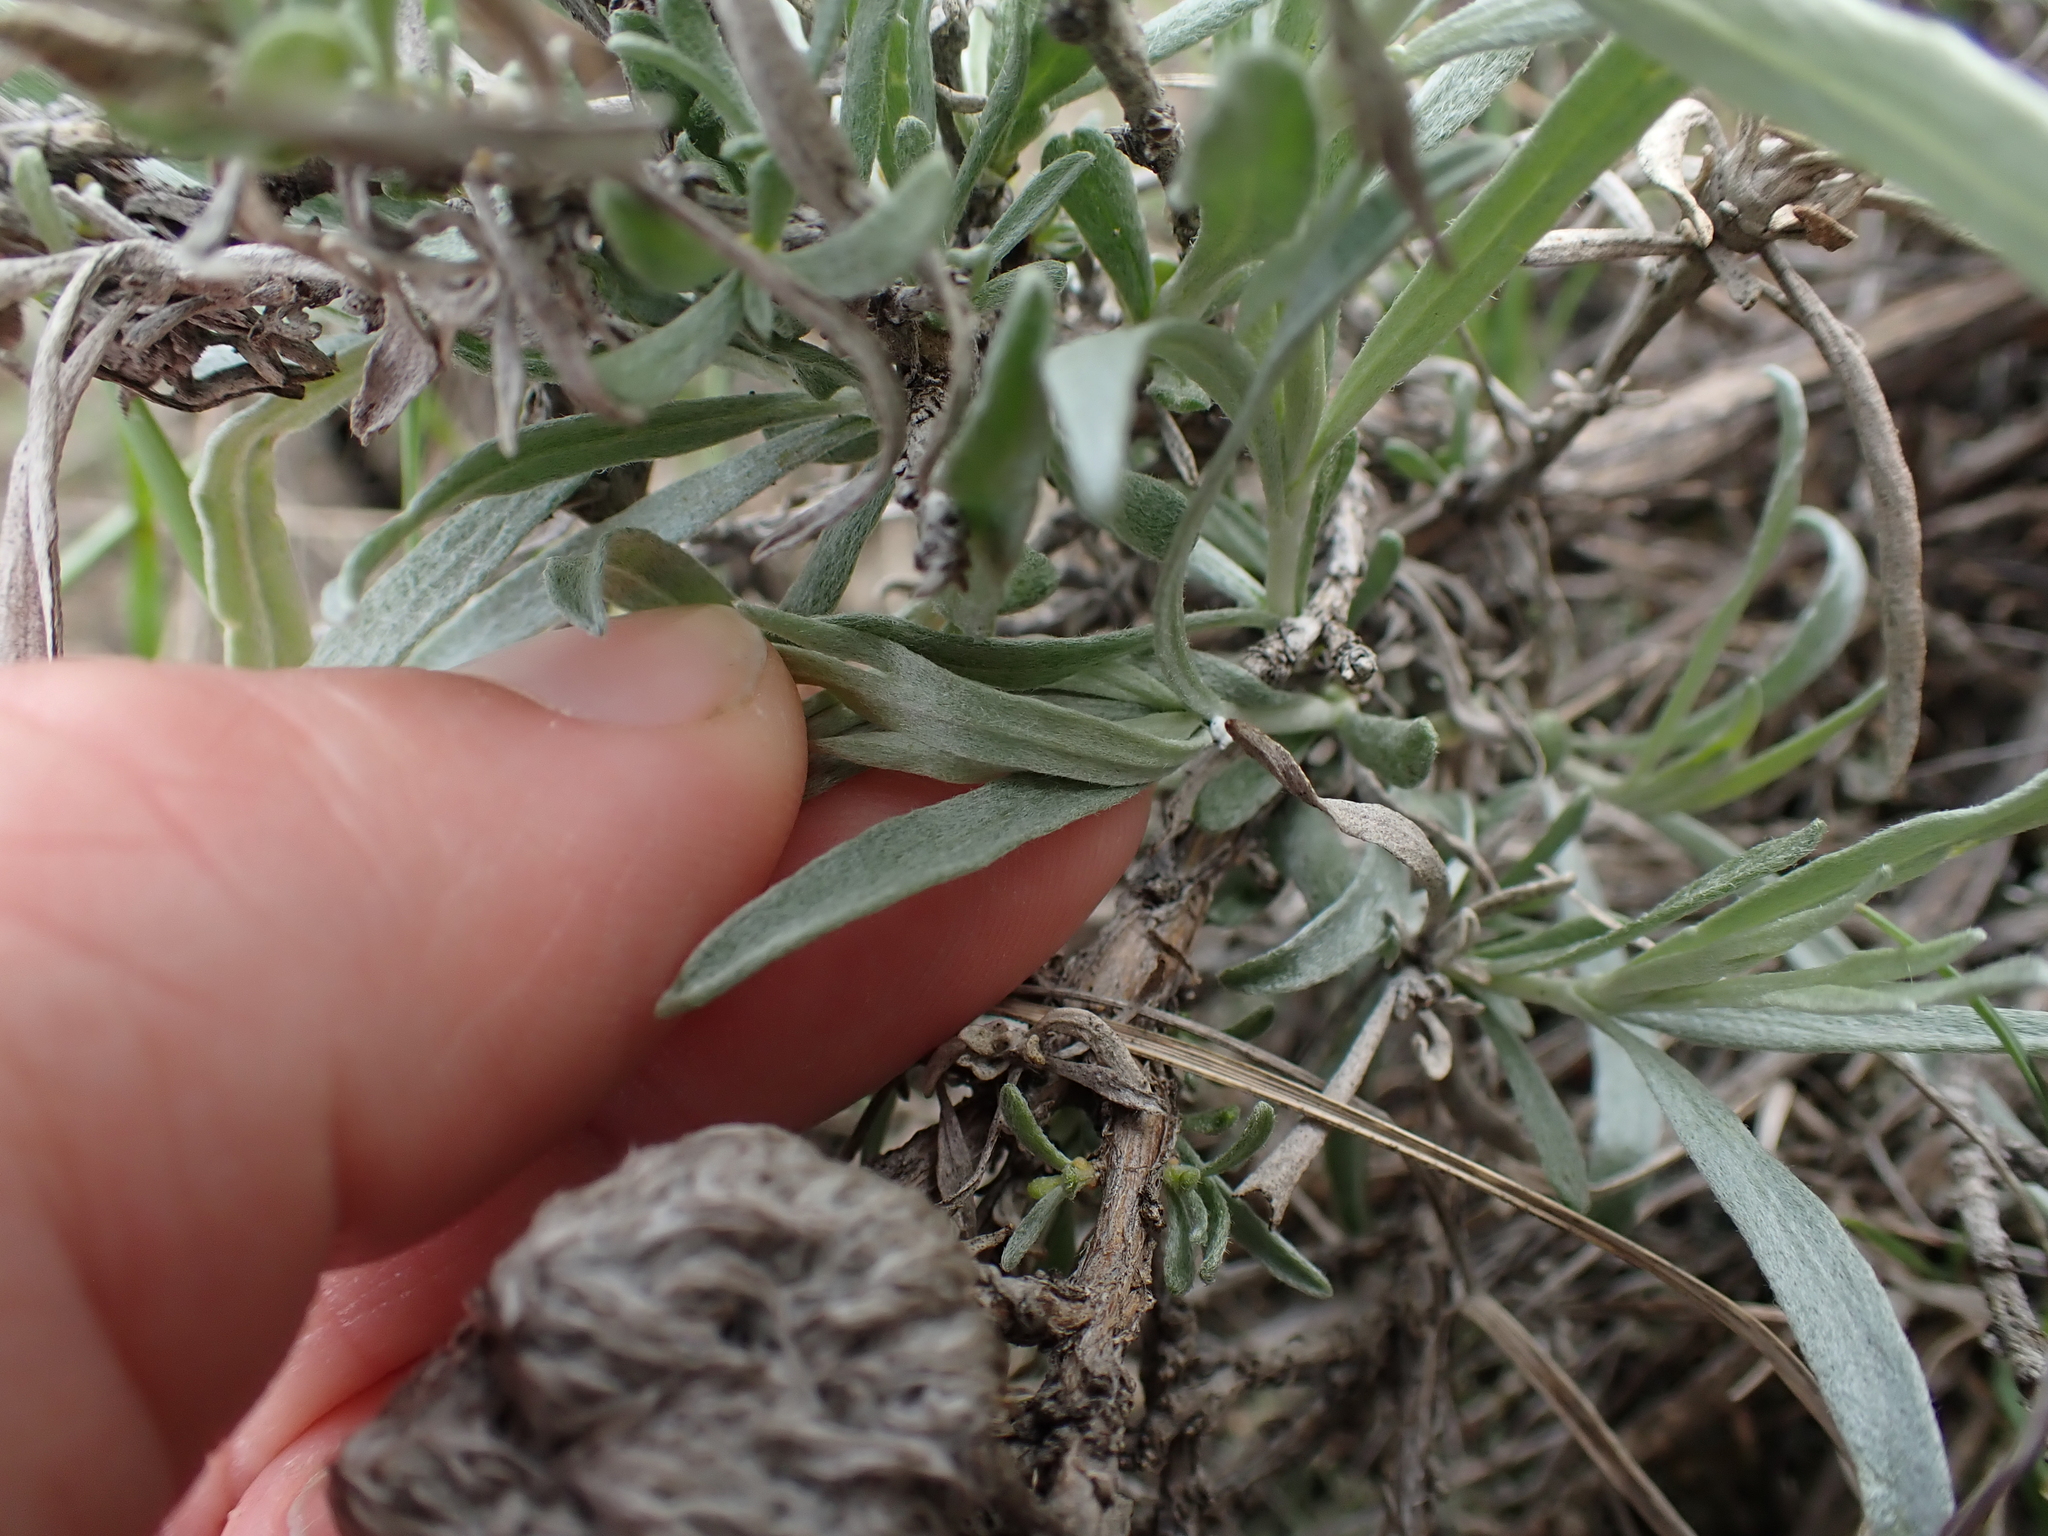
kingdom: Plantae
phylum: Tracheophyta
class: Magnoliopsida
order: Asterales
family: Asteraceae
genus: Artemisia
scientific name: Artemisia cana
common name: Silver sagebrush
